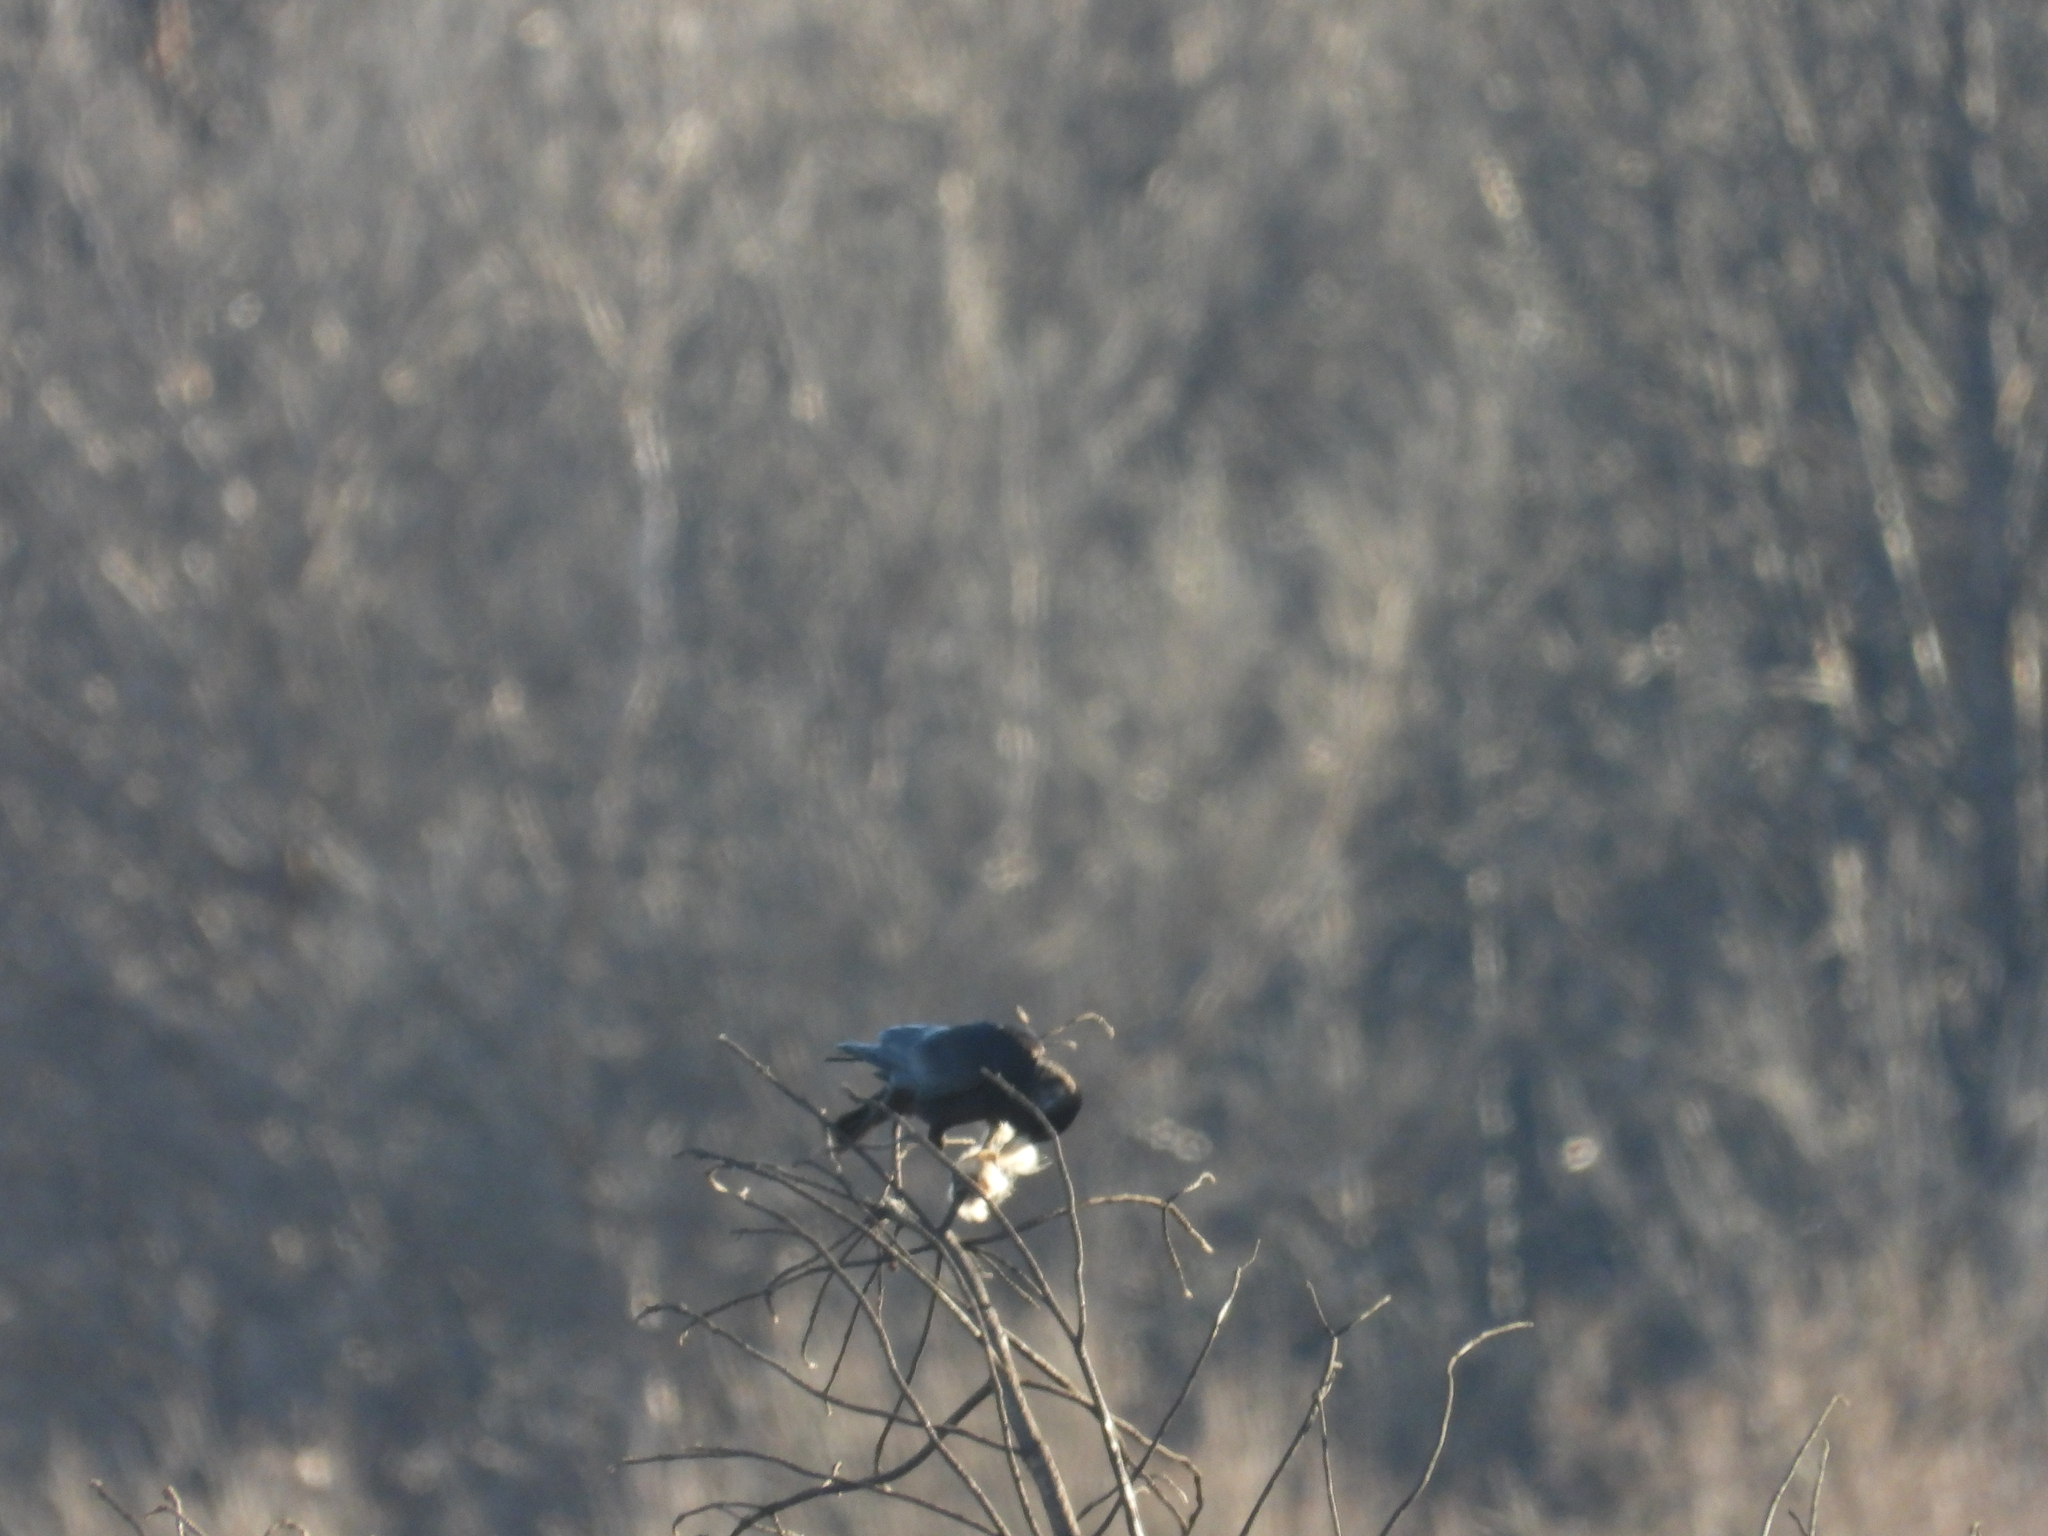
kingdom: Animalia
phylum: Chordata
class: Aves
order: Passeriformes
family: Corvidae
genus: Corvus
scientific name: Corvus corone
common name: Carrion crow
